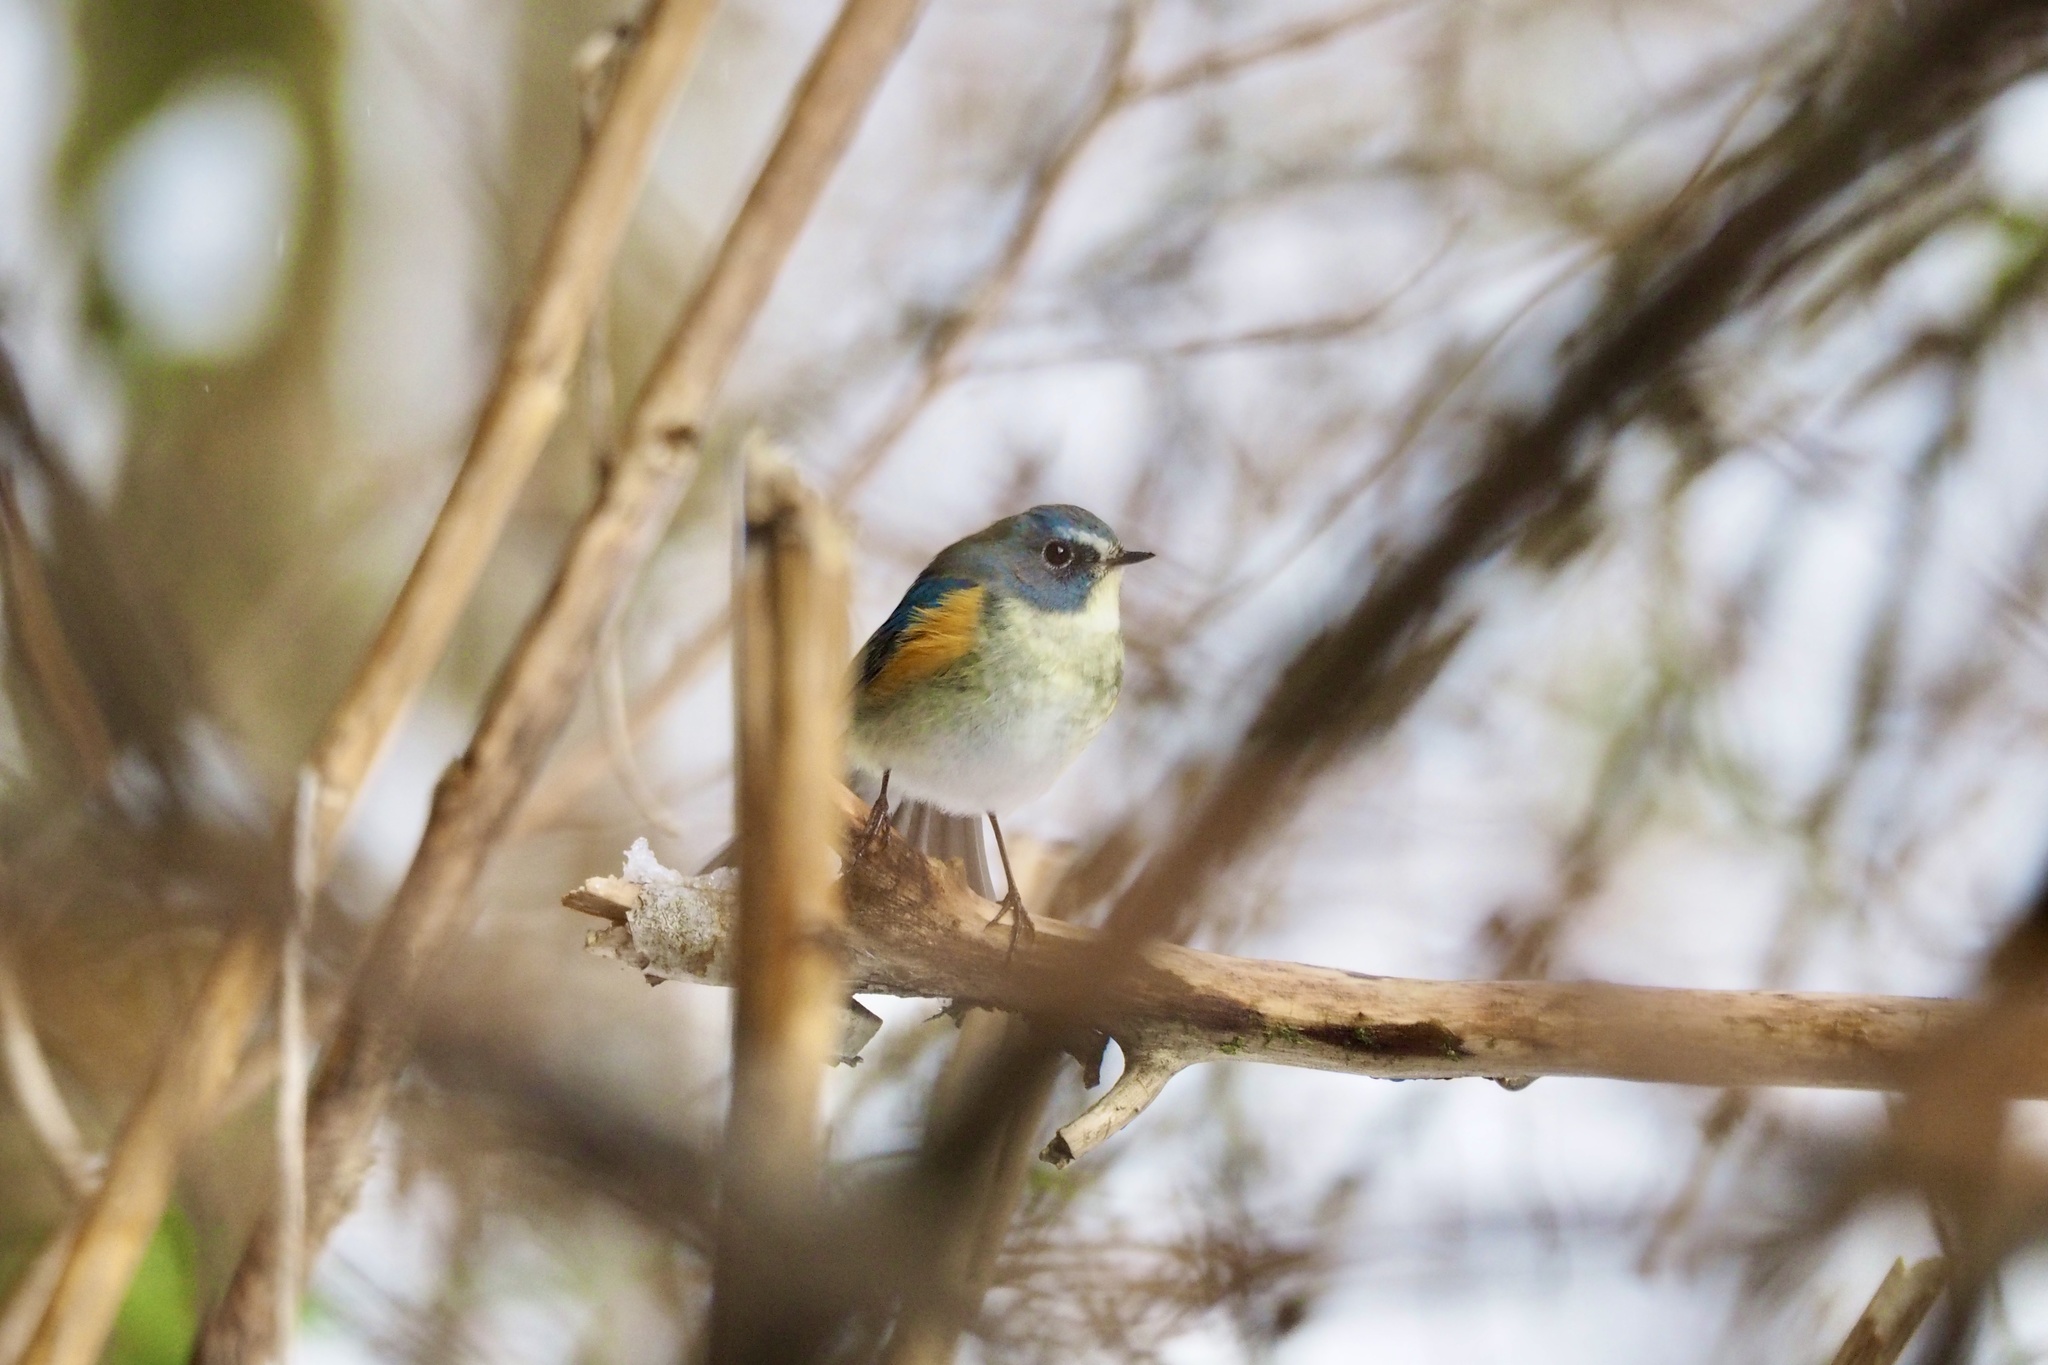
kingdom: Animalia
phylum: Chordata
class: Aves
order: Passeriformes
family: Muscicapidae
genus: Tarsiger
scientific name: Tarsiger cyanurus
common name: Red-flanked bluetail
